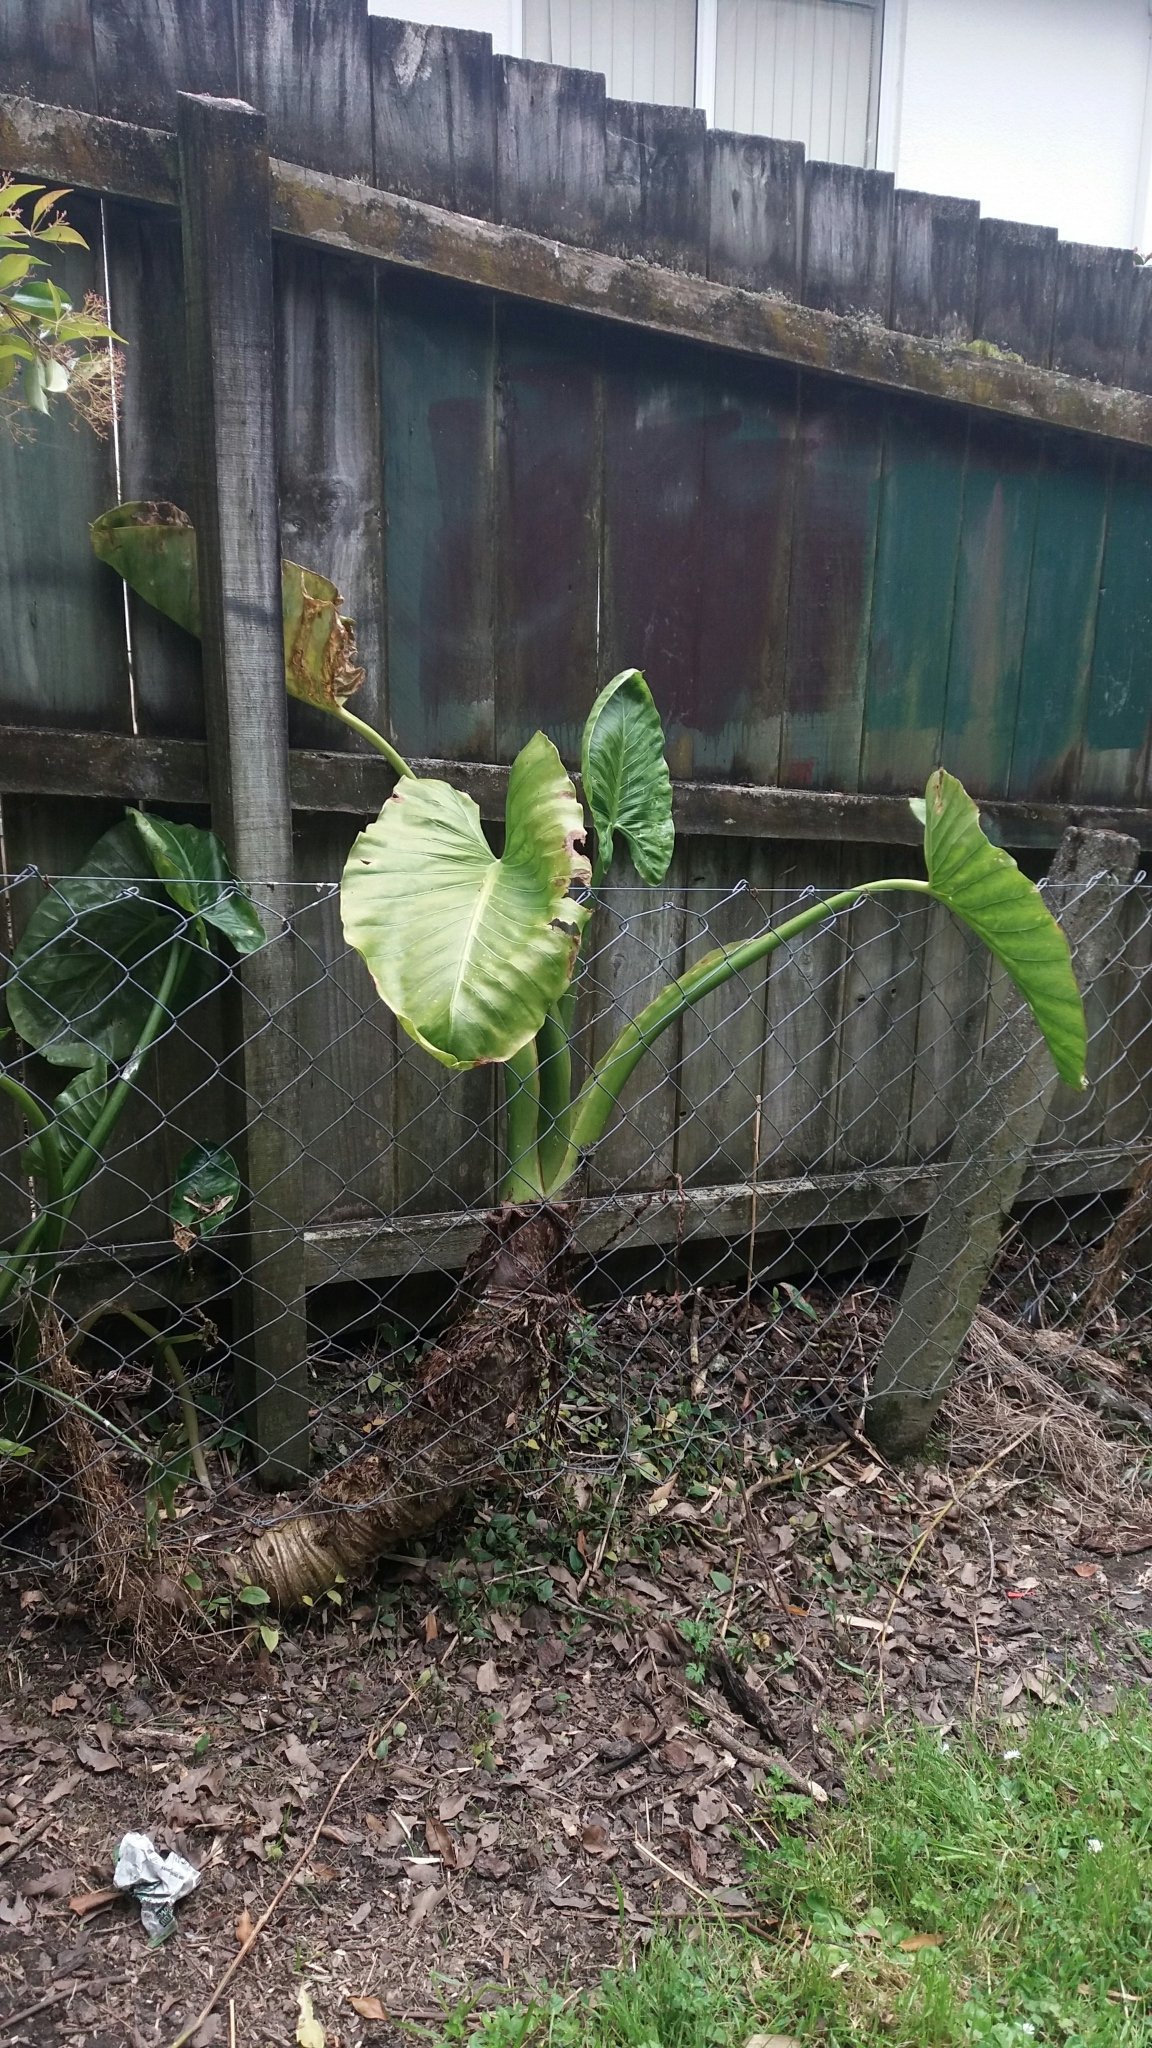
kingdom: Plantae
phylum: Tracheophyta
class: Liliopsida
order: Alismatales
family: Araceae
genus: Alocasia
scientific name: Alocasia brisbanensis
